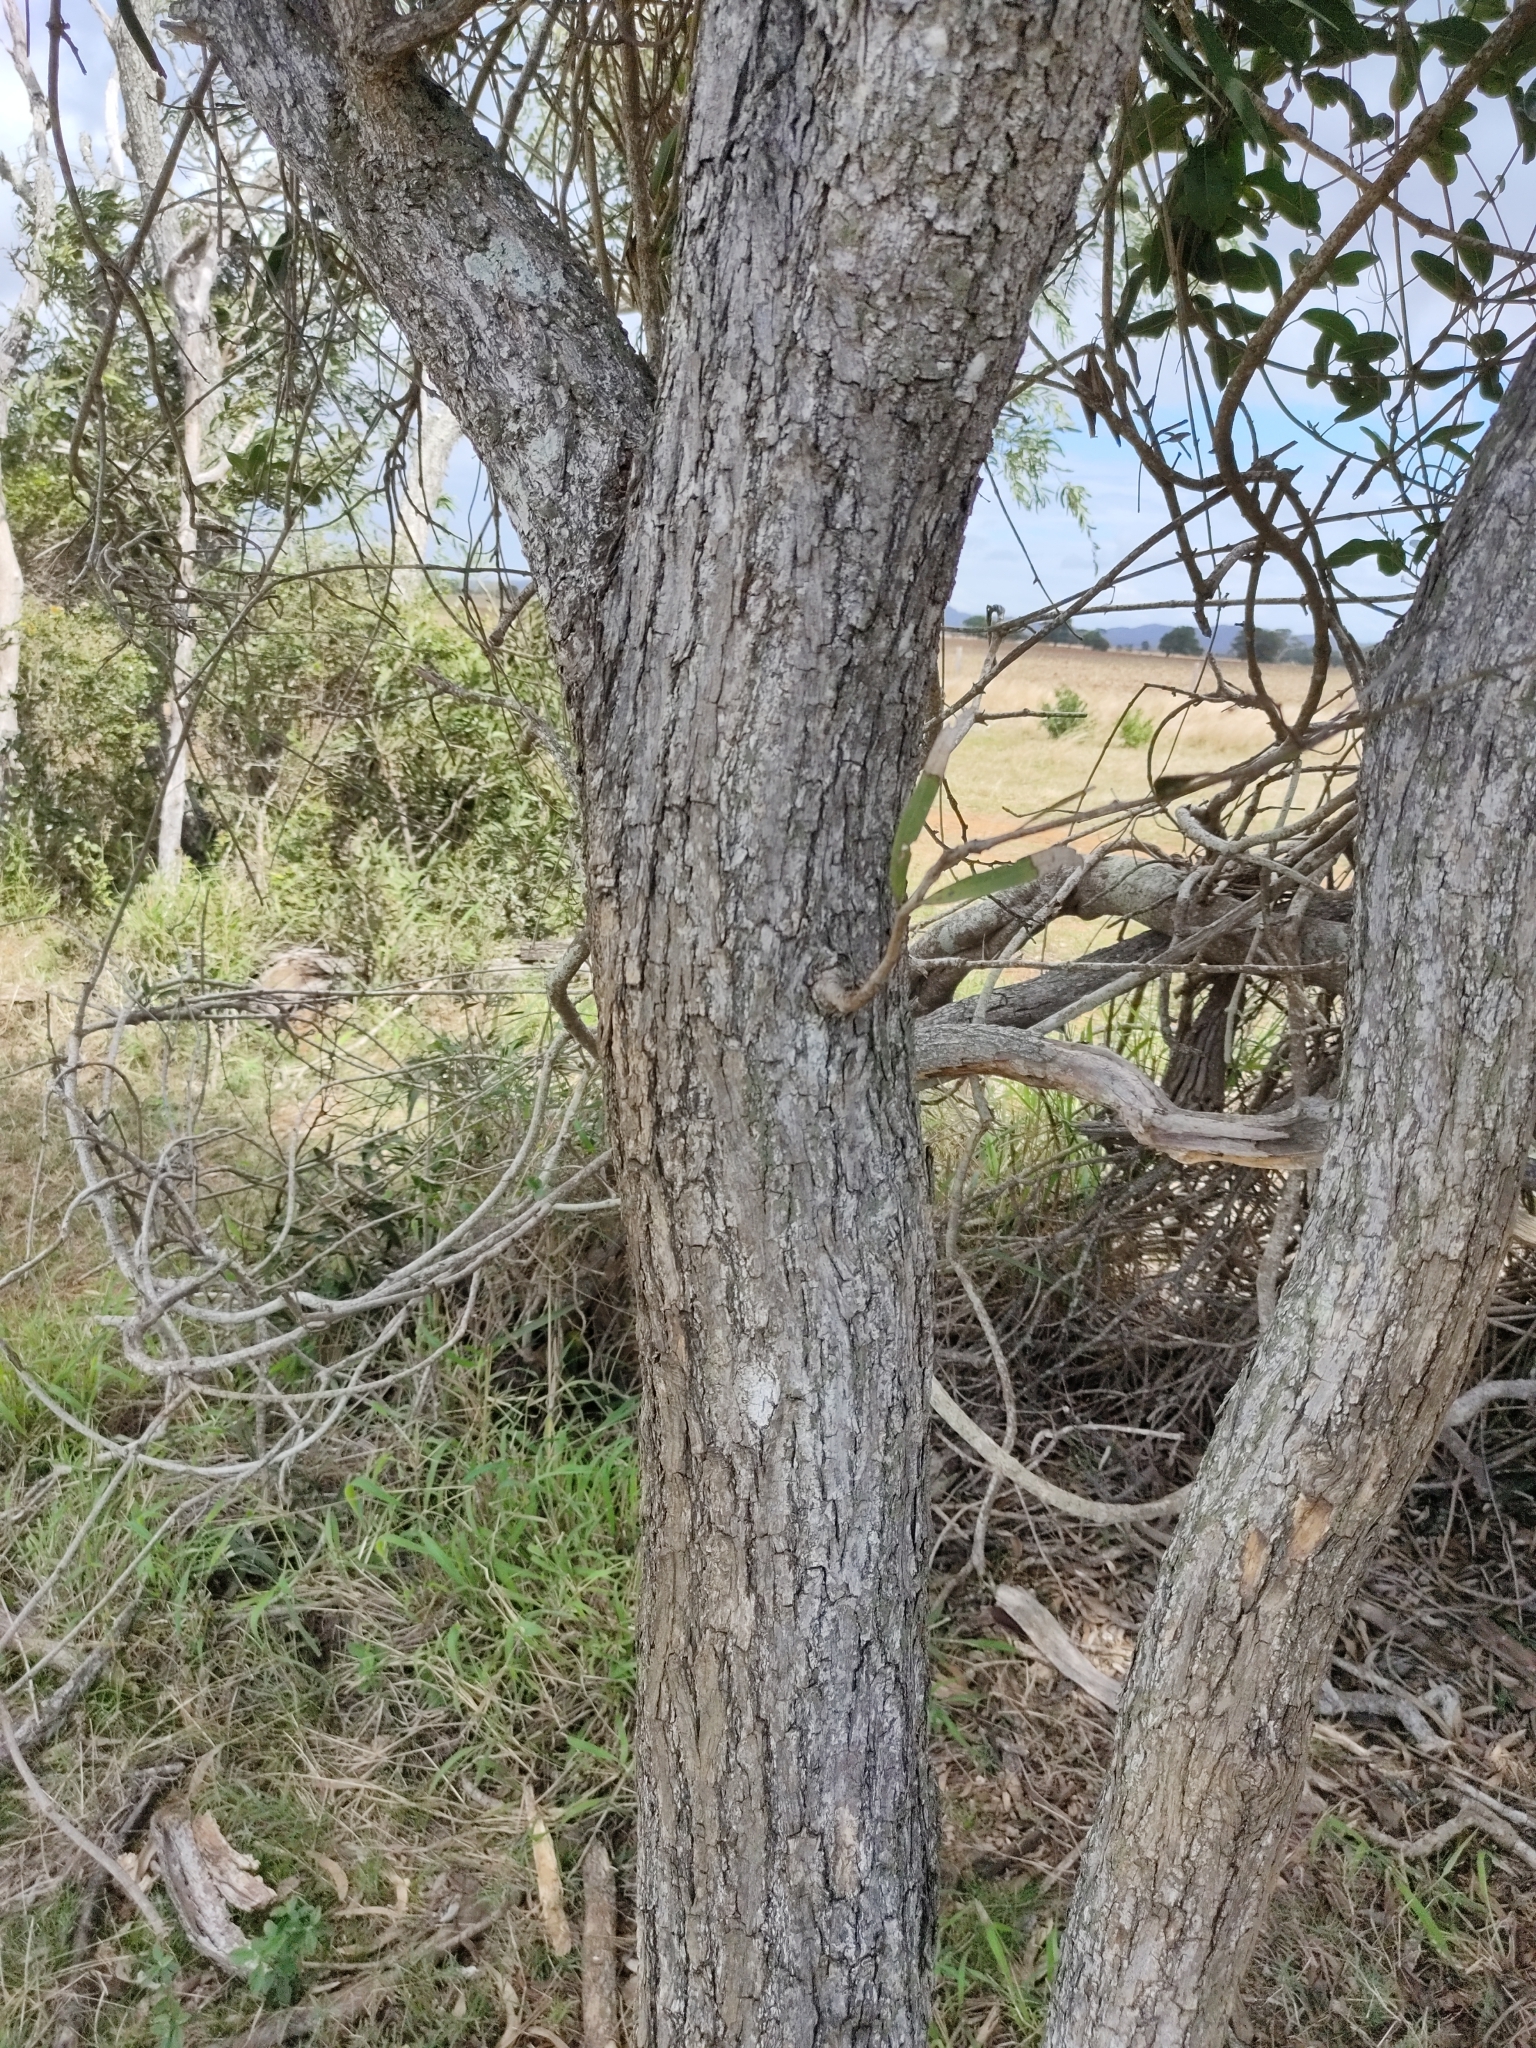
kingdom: Plantae
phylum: Tracheophyta
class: Magnoliopsida
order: Fabales
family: Fabaceae
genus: Acacia
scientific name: Acacia fasciculifera
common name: Scalybark
